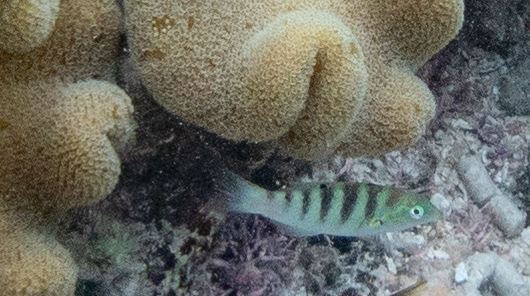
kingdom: Animalia
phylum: Chordata
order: Perciformes
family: Labridae
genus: Thalassoma
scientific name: Thalassoma hardwicke
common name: Sixbar wrasse
